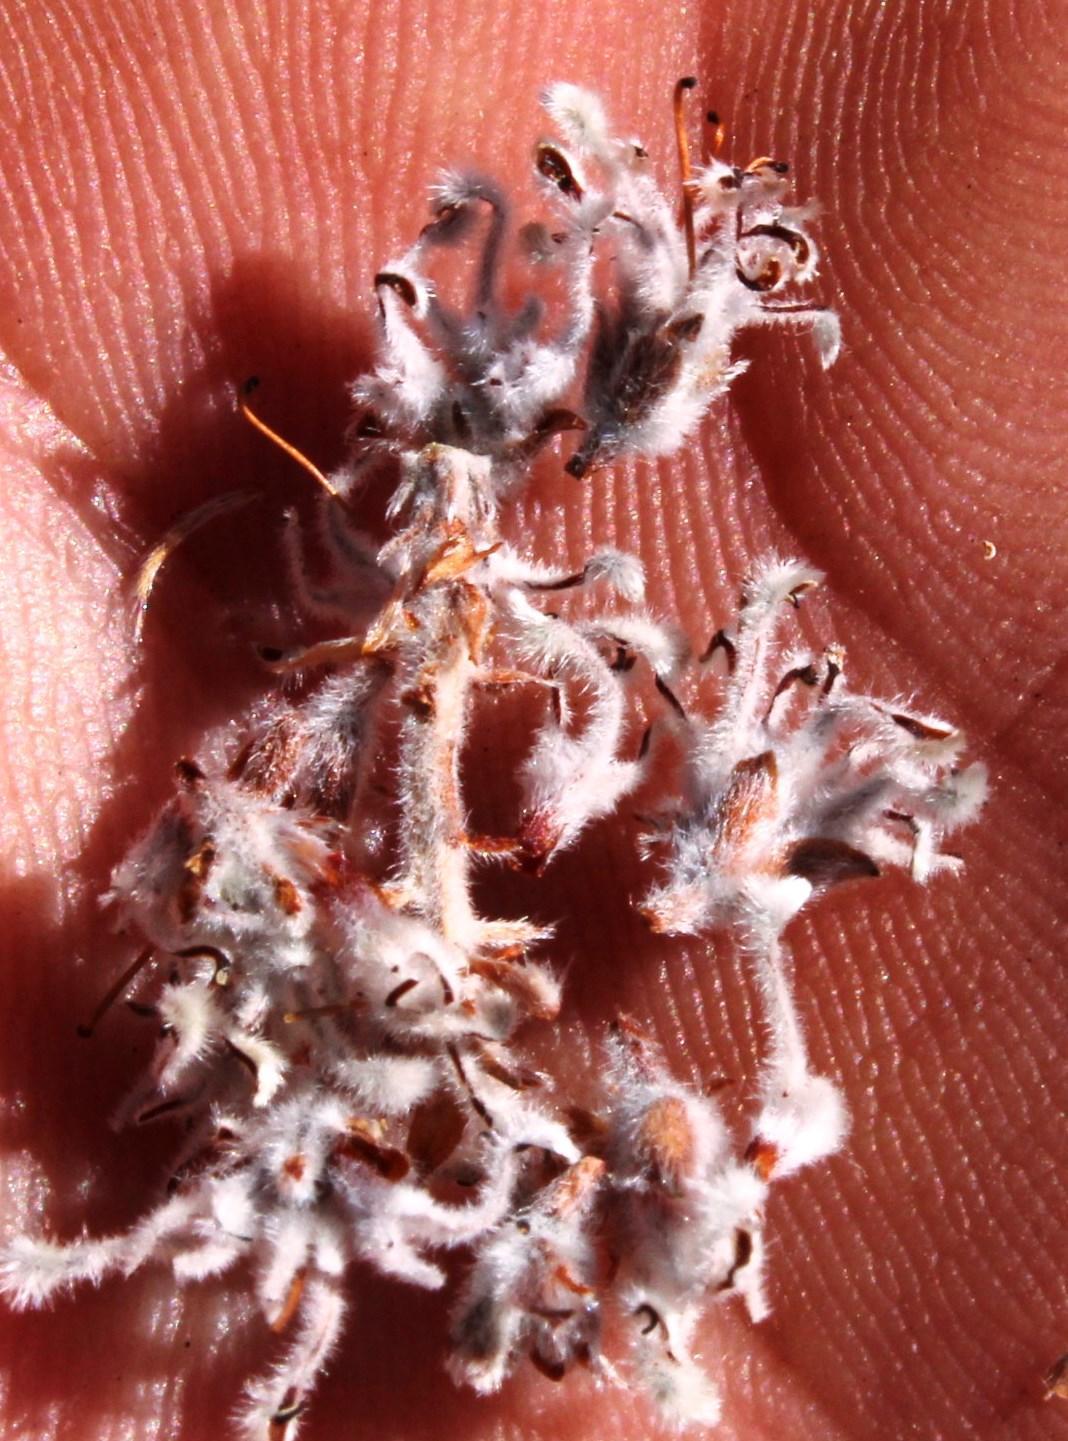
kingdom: Plantae
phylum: Tracheophyta
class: Magnoliopsida
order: Proteales
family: Proteaceae
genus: Spatalla
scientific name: Spatalla incurva
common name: Swan-head spoon
